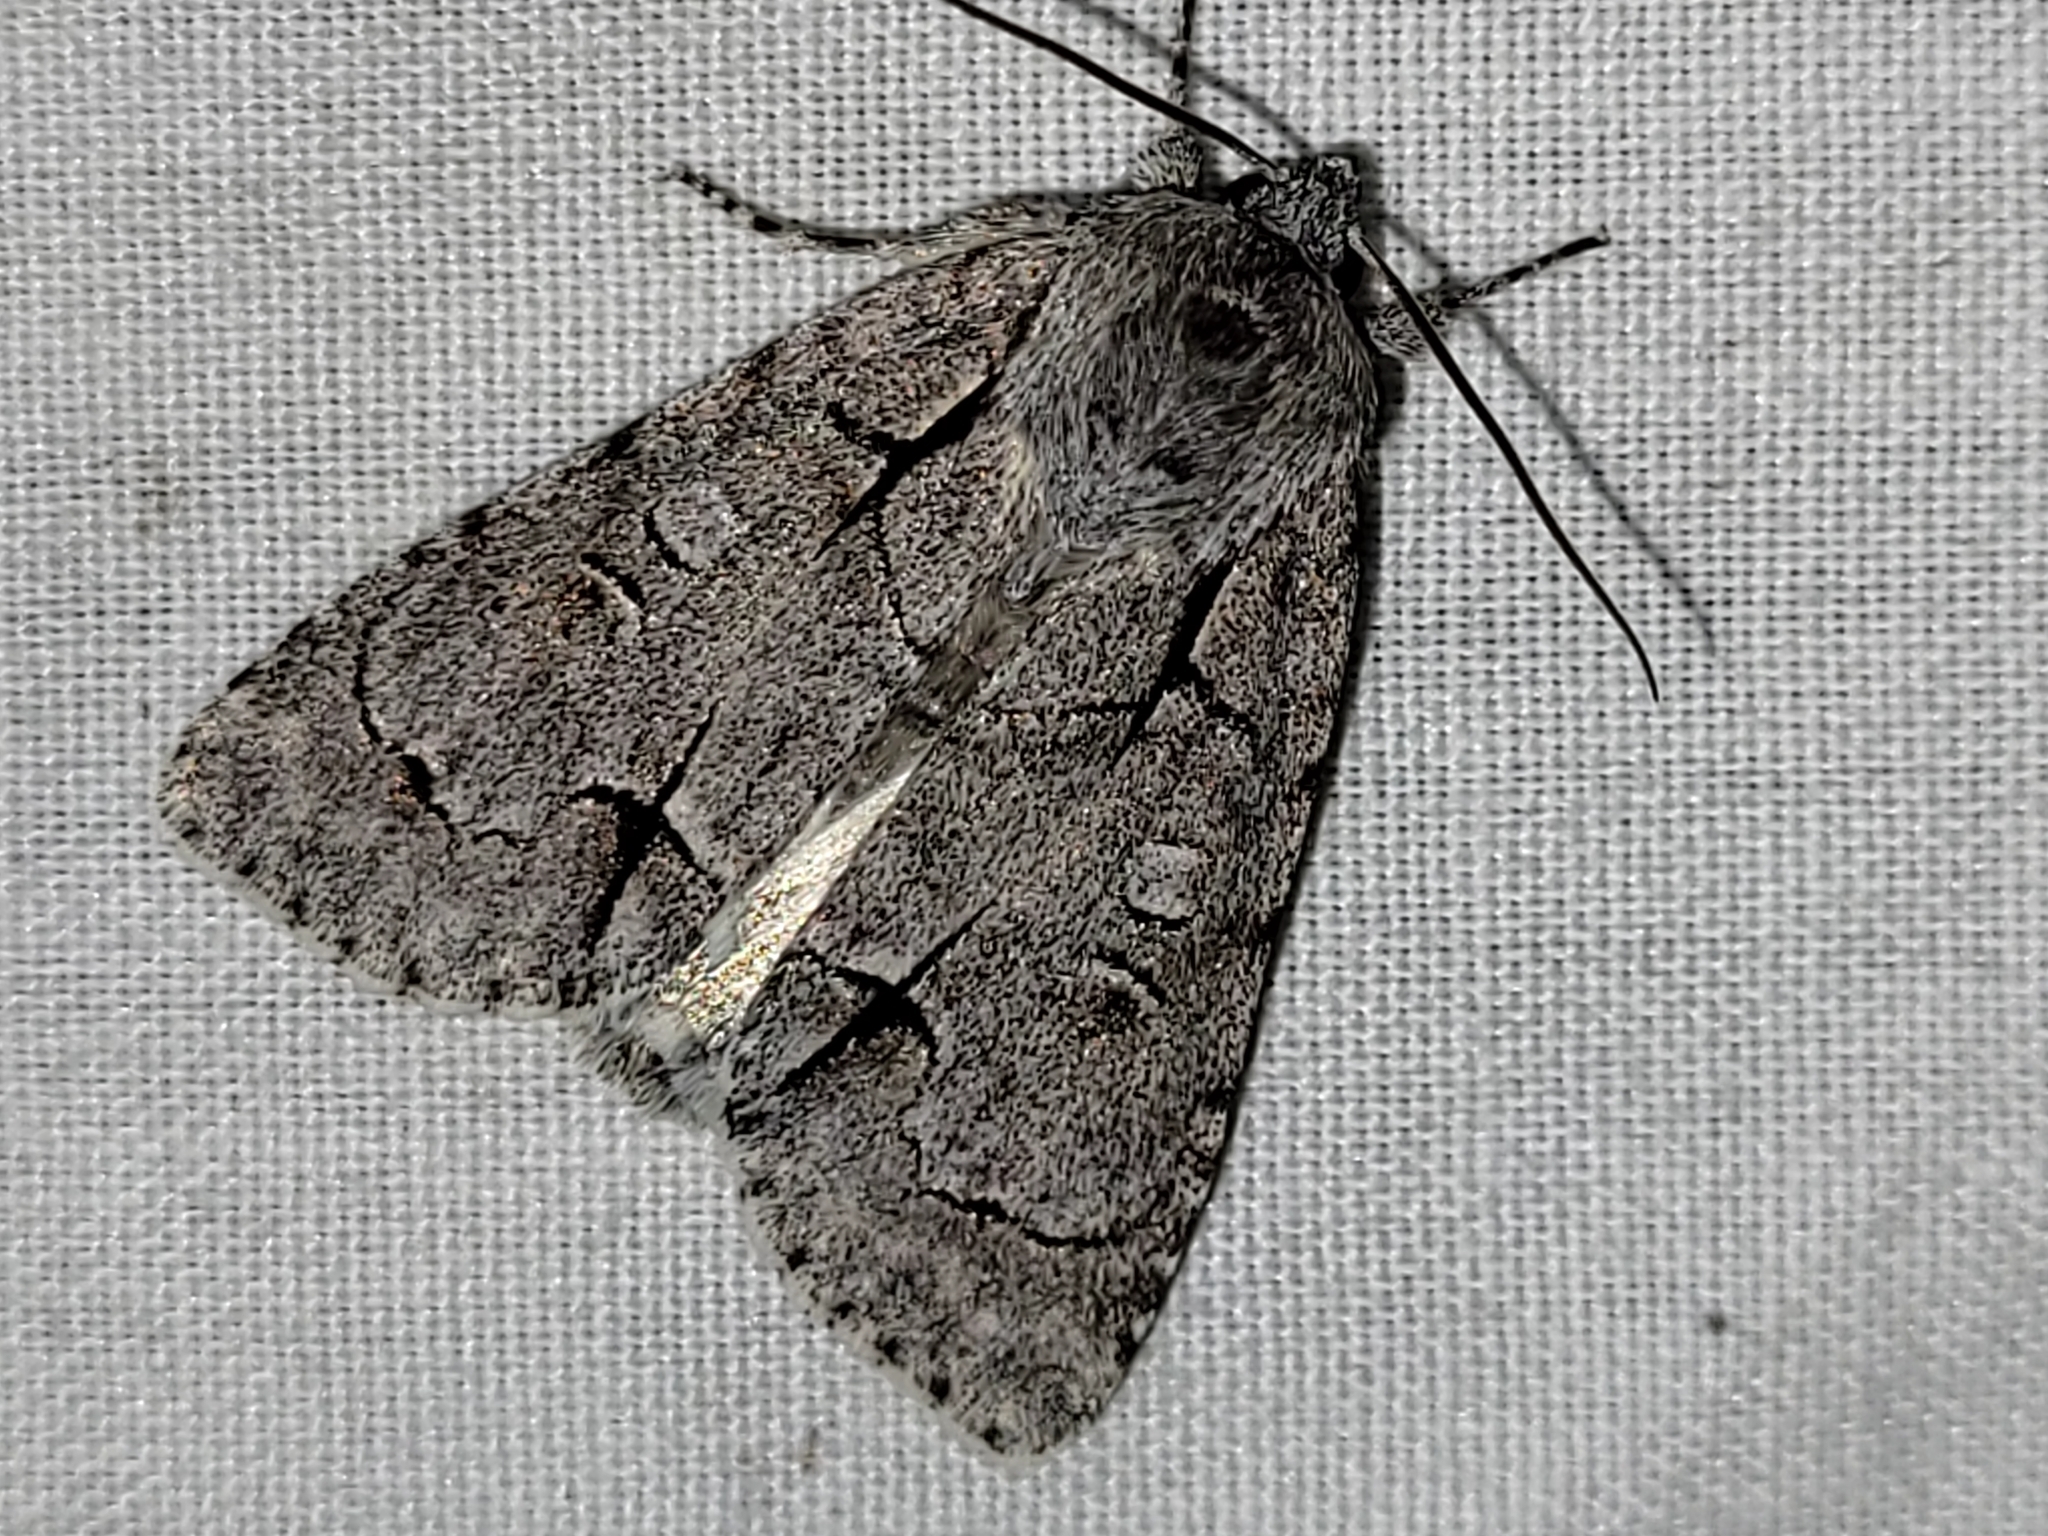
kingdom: Animalia
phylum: Arthropoda
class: Insecta
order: Lepidoptera
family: Noctuidae
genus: Acronicta
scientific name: Acronicta radcliffei
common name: Radcliffe's dagger
